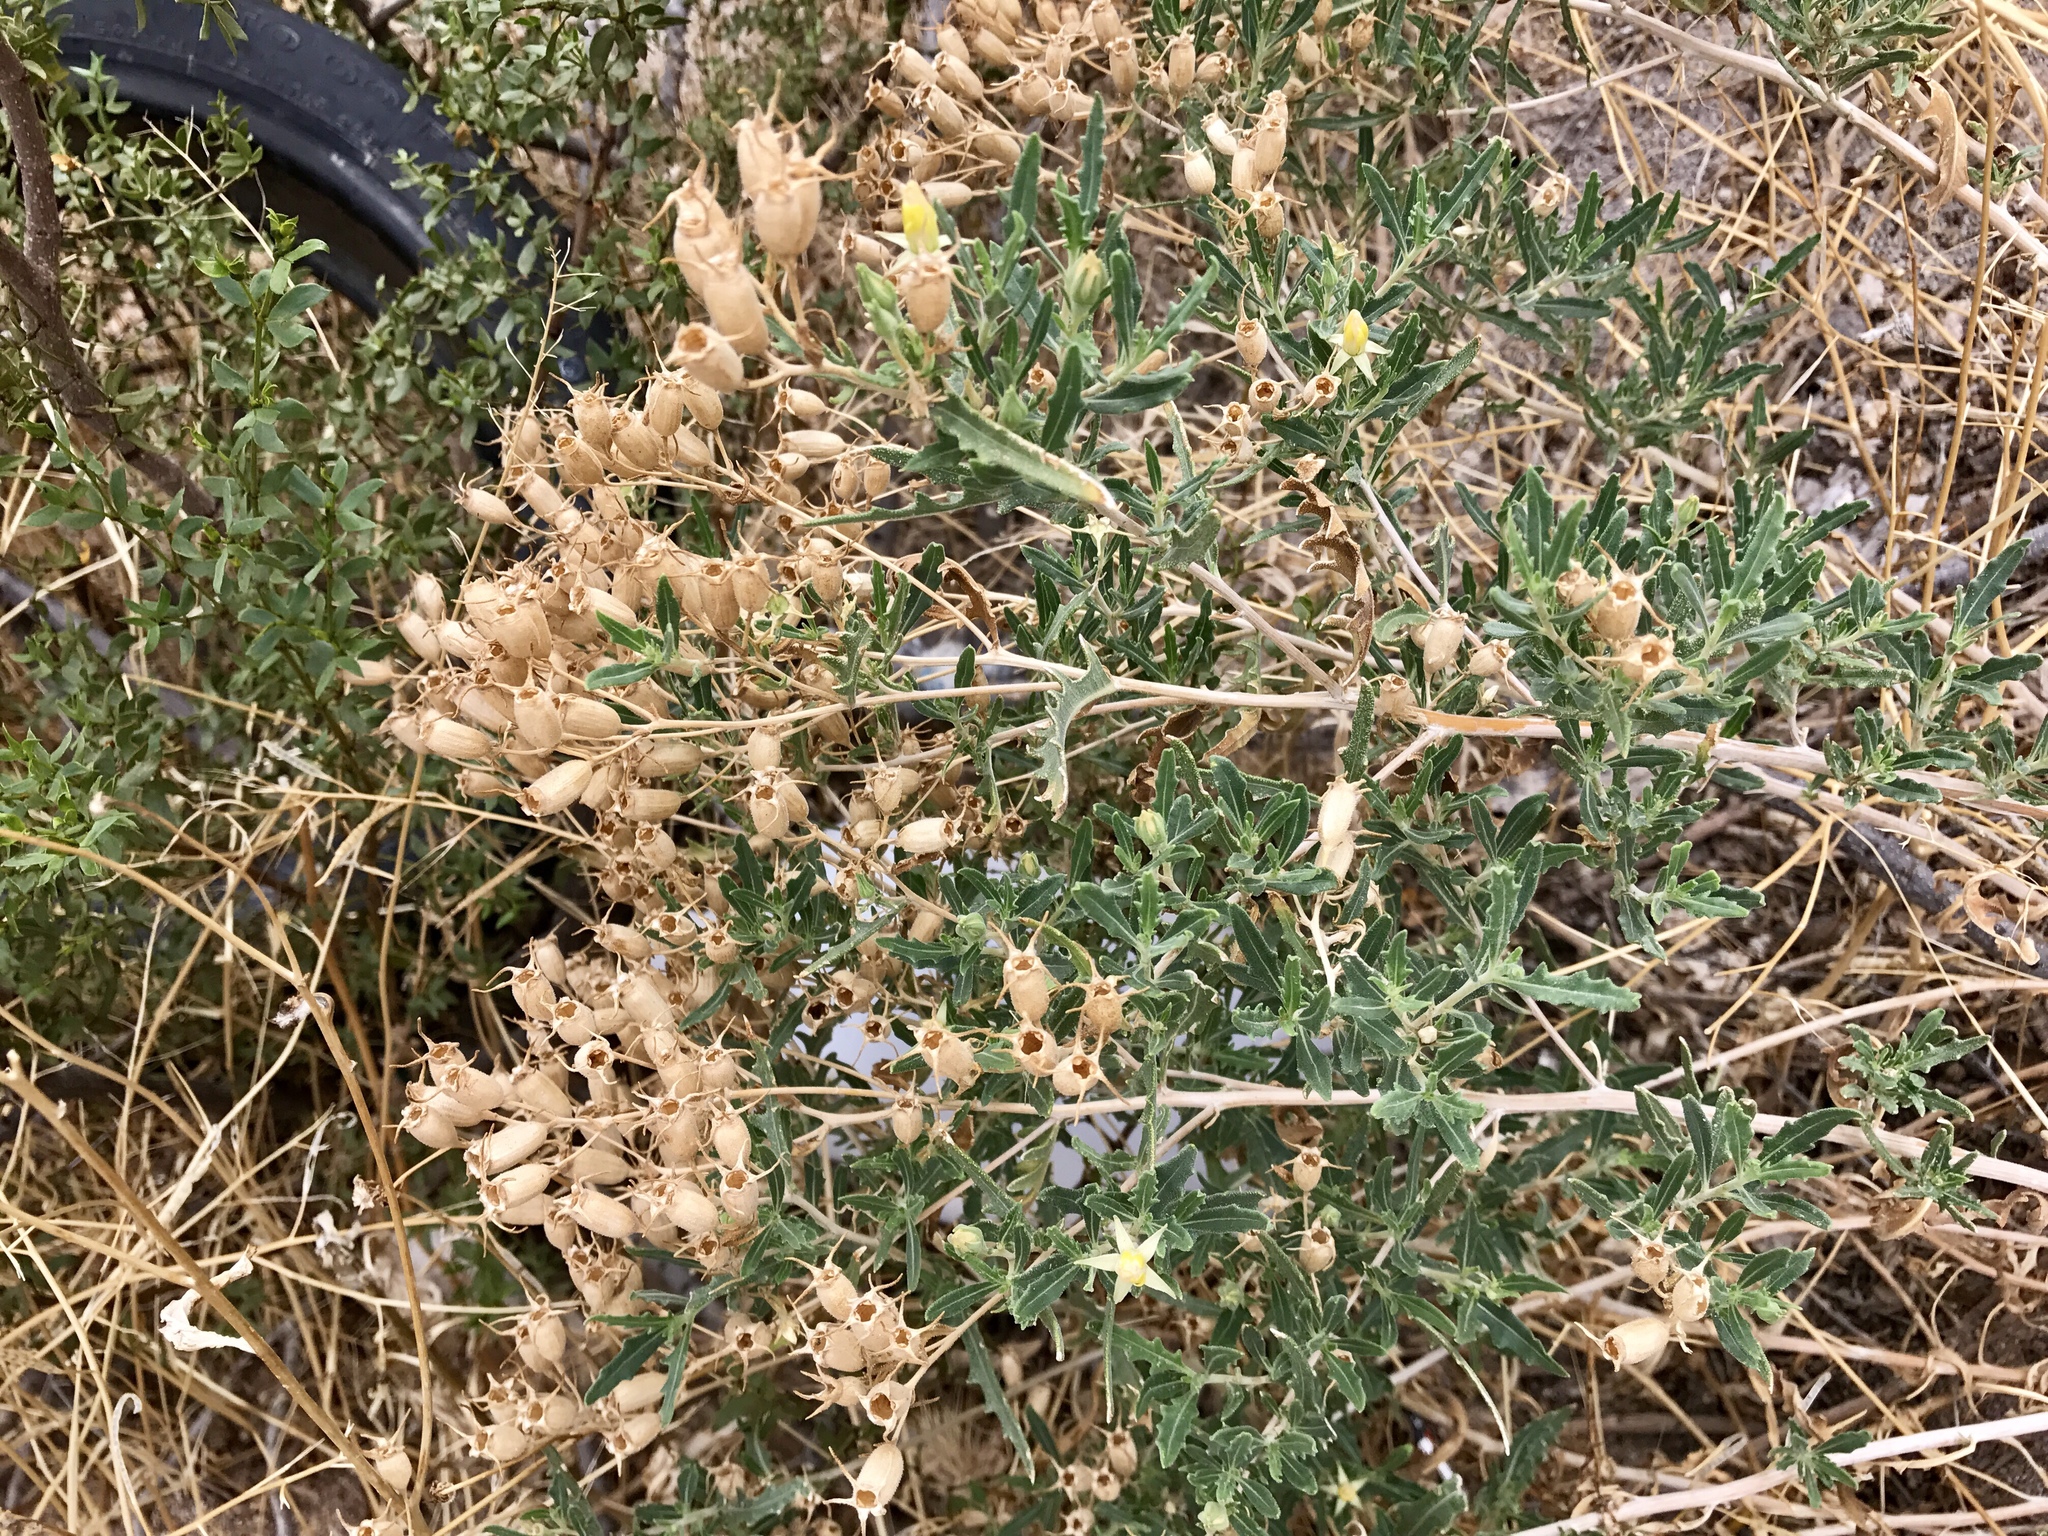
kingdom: Plantae
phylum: Tracheophyta
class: Magnoliopsida
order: Cornales
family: Loasaceae
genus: Mentzelia
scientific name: Mentzelia longiloba
